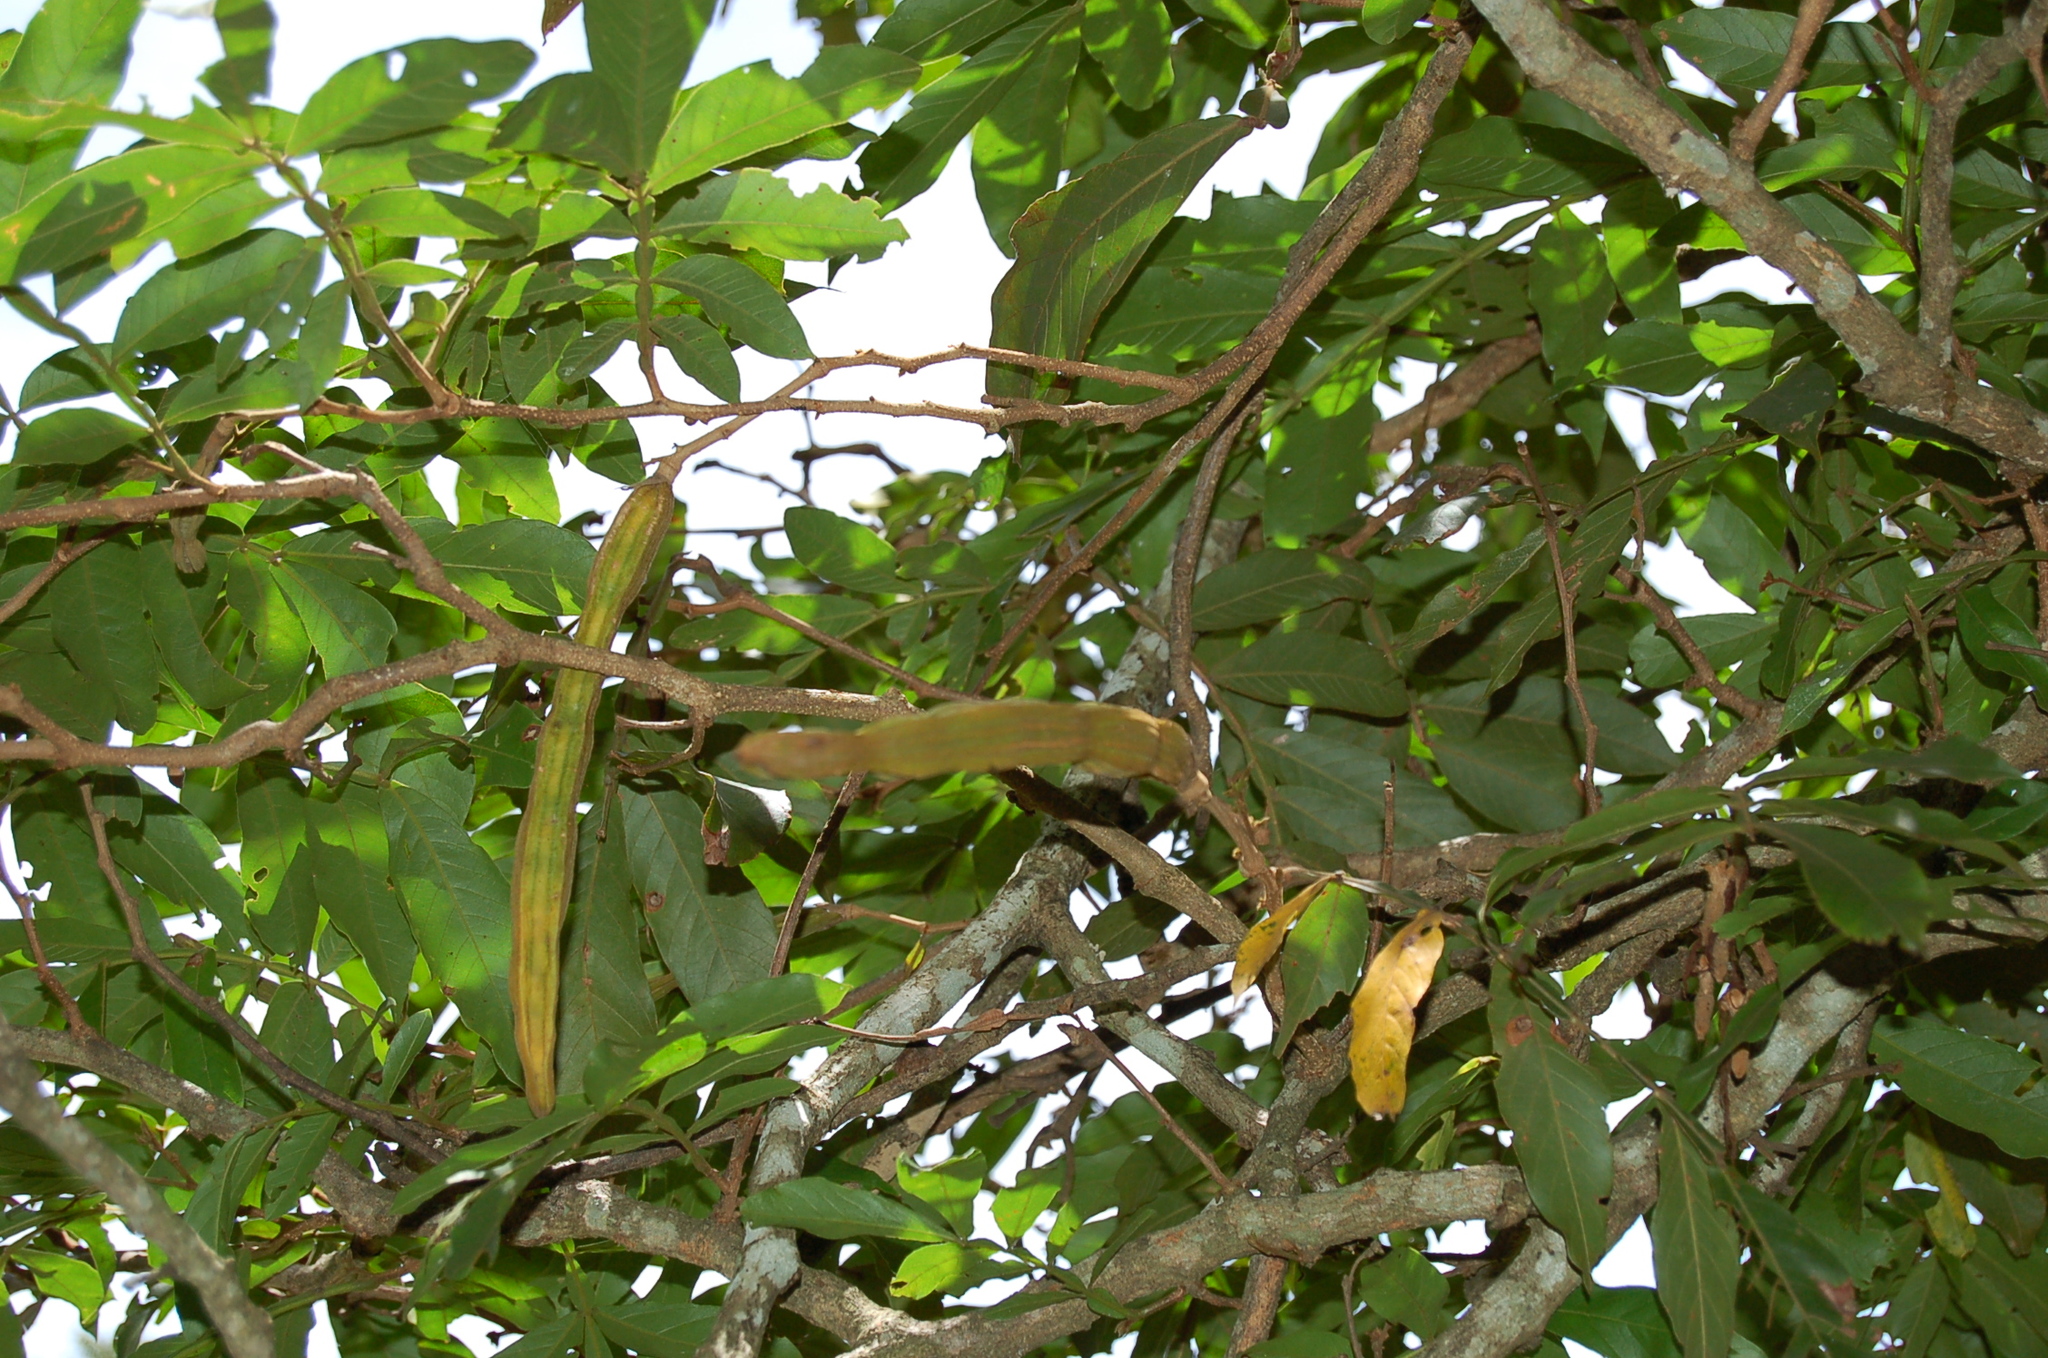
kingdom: Plantae
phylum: Tracheophyta
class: Magnoliopsida
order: Fabales
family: Fabaceae
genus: Inga
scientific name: Inga oerstediana
